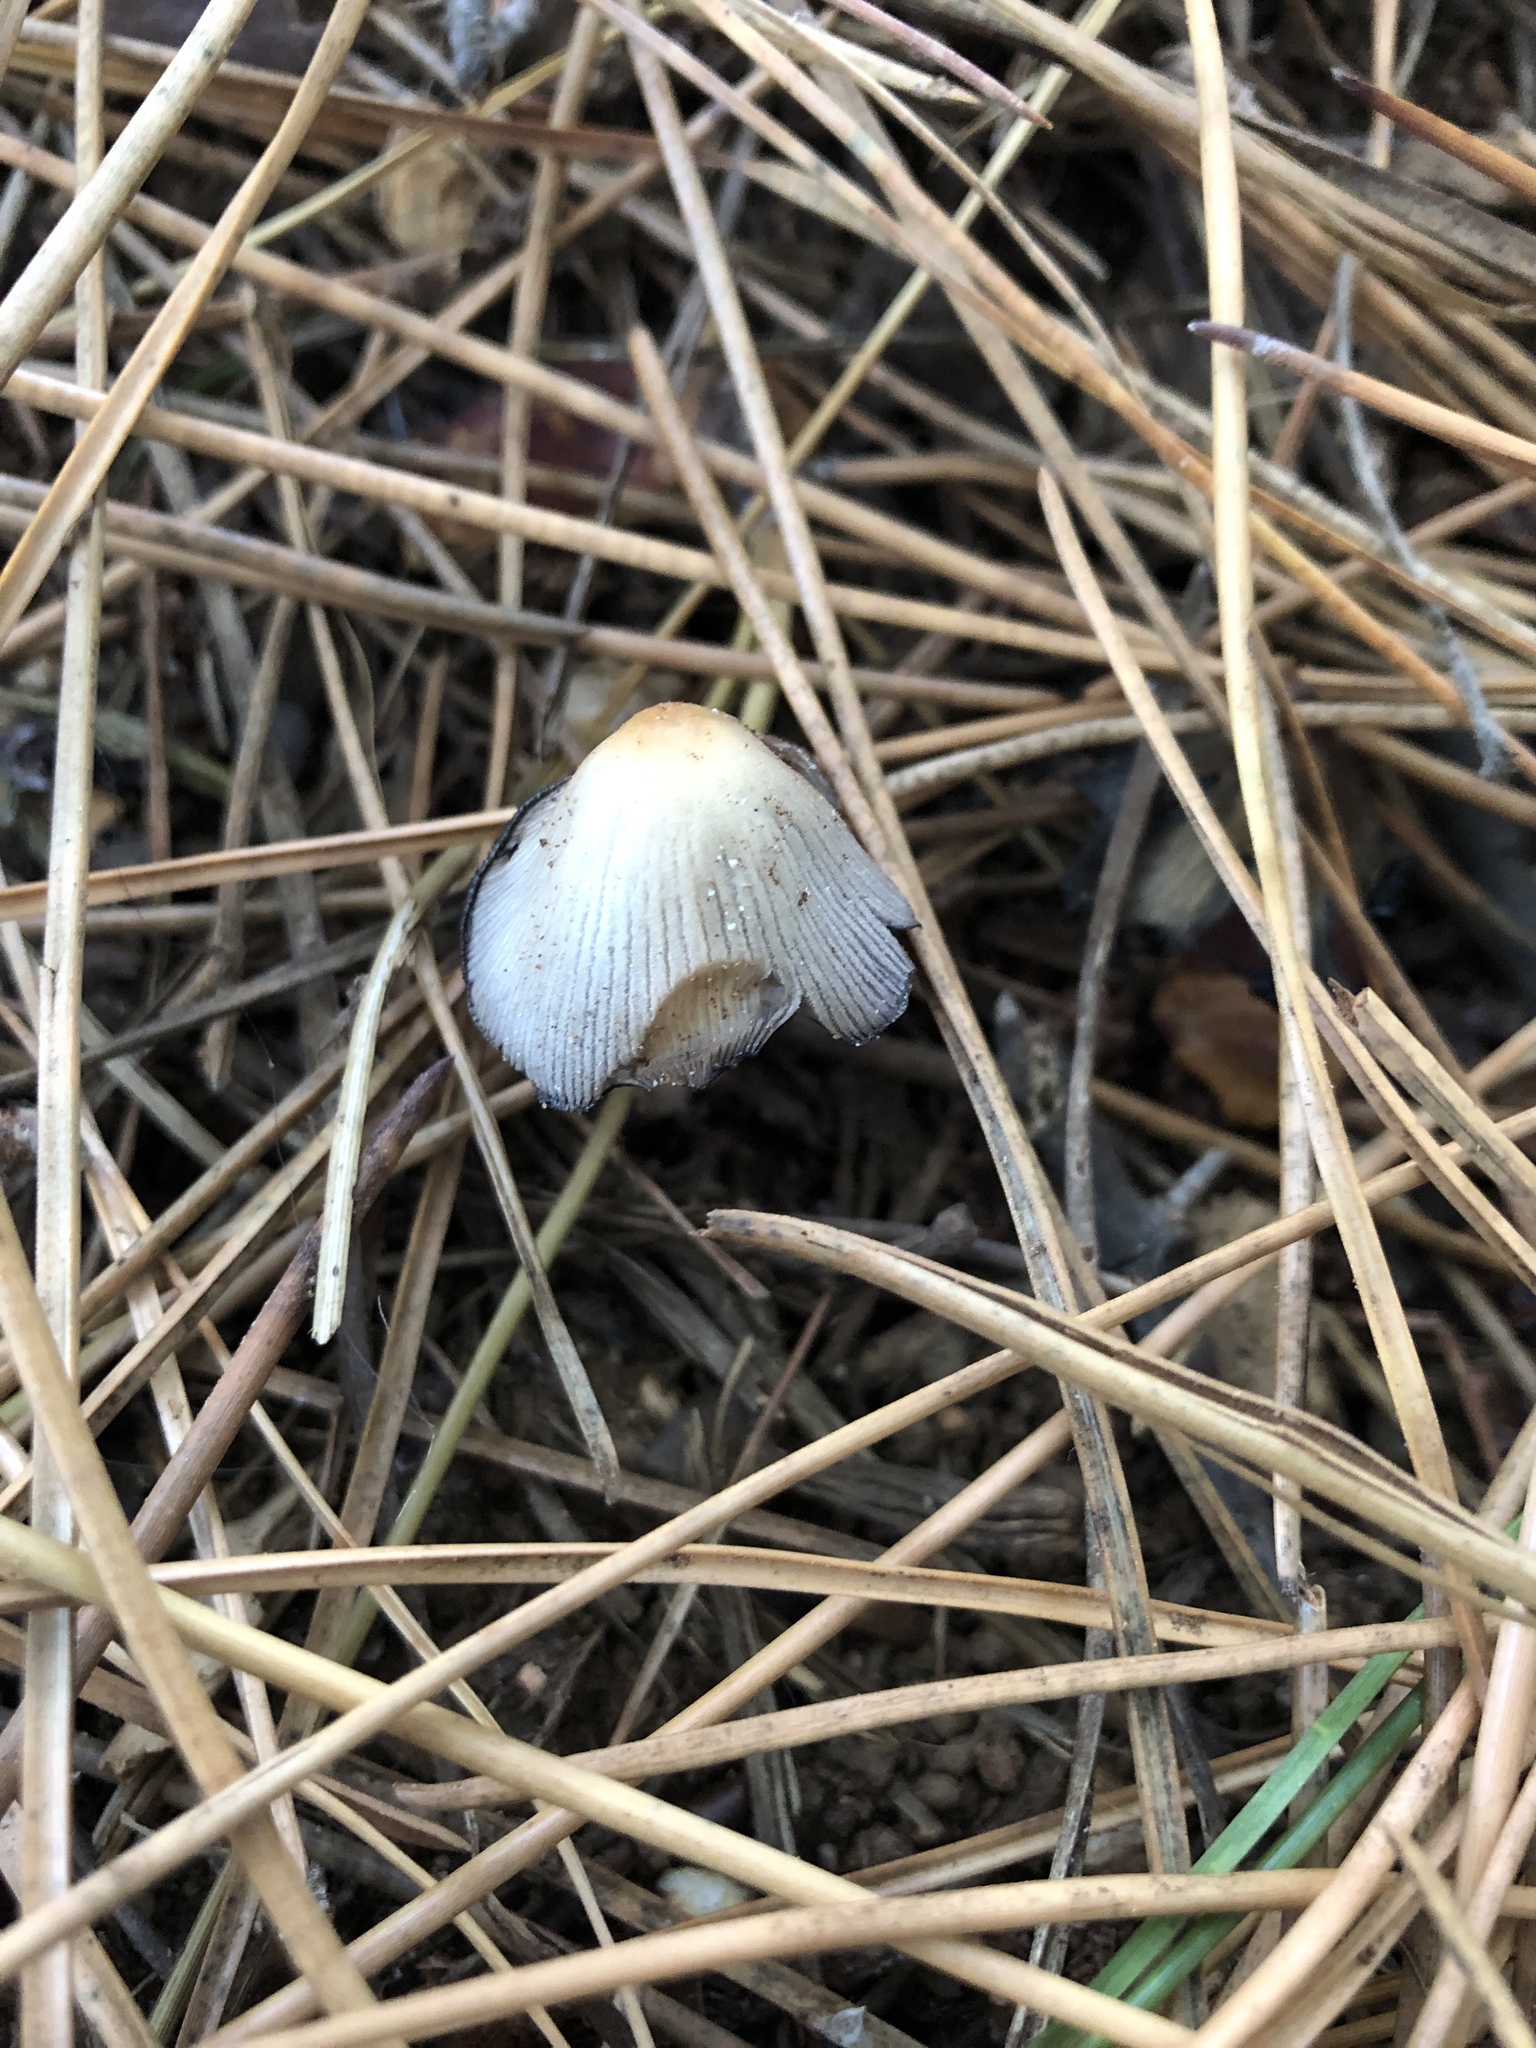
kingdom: Fungi
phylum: Basidiomycota
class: Agaricomycetes
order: Agaricales
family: Psathyrellaceae
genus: Coprinellus
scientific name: Coprinellus micaceus
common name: Glistening ink-cap
